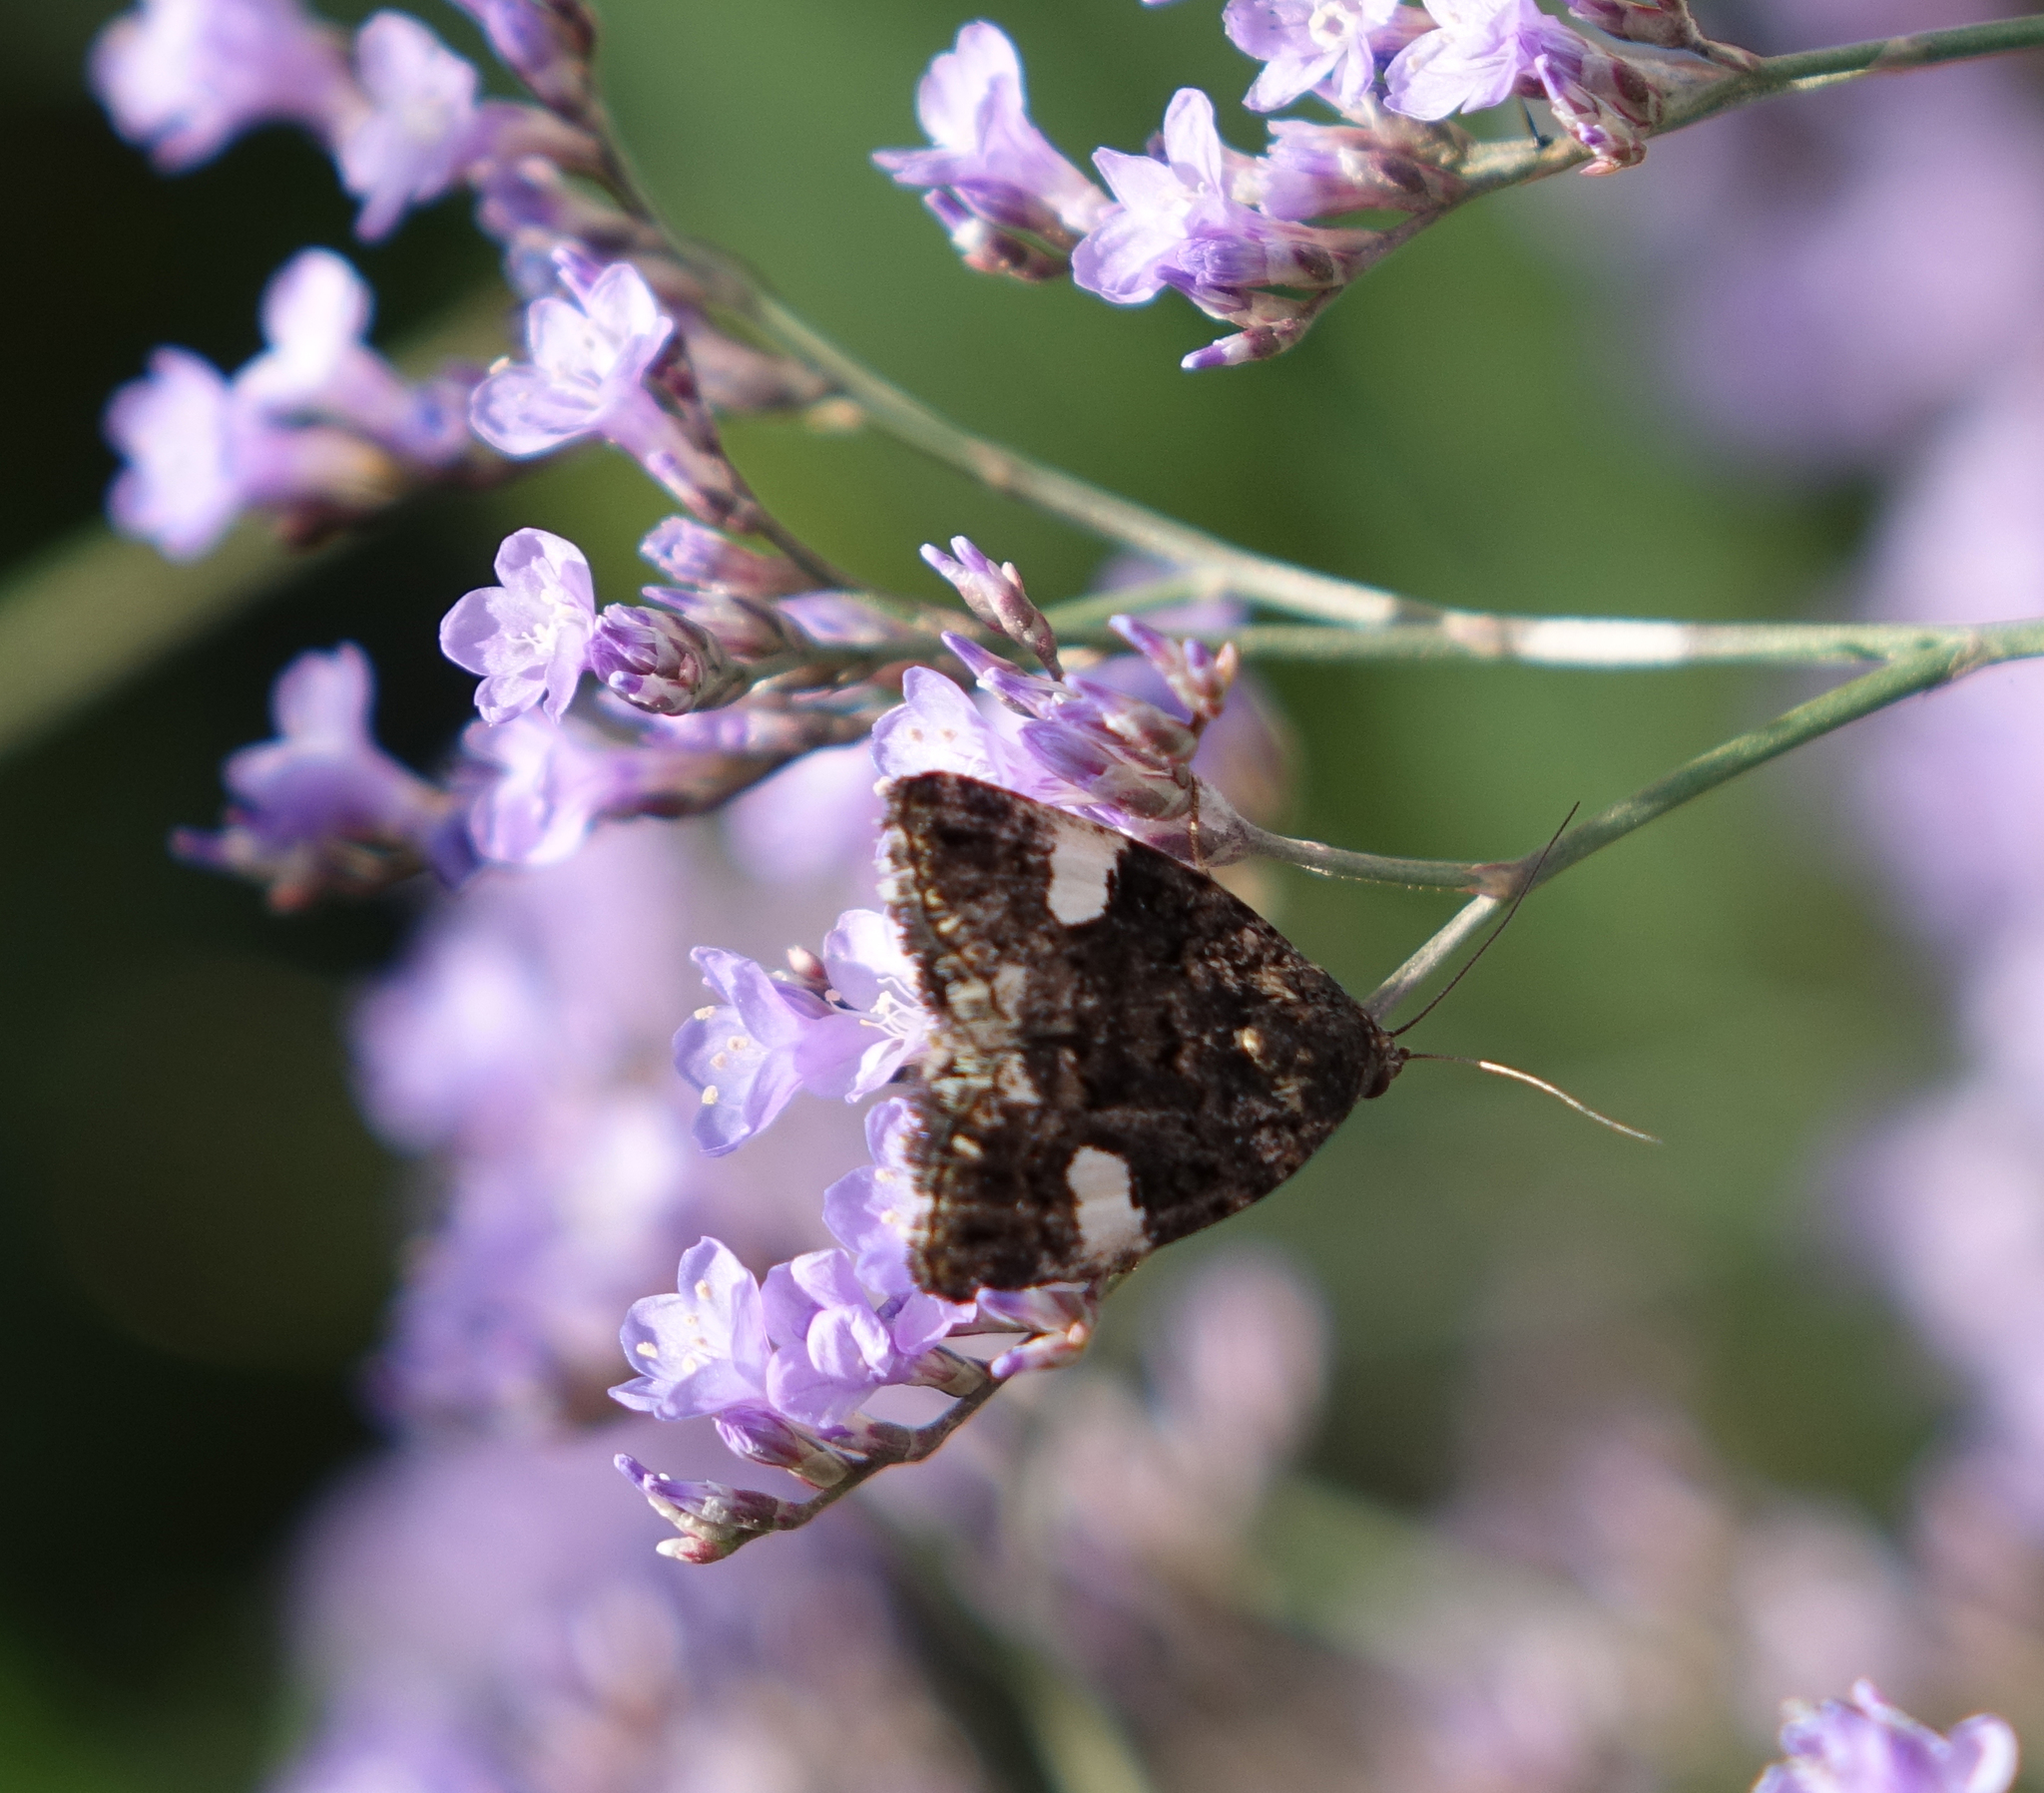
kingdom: Animalia
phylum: Arthropoda
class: Insecta
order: Lepidoptera
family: Erebidae
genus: Tyta
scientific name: Tyta luctuosa
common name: Four-spotted
